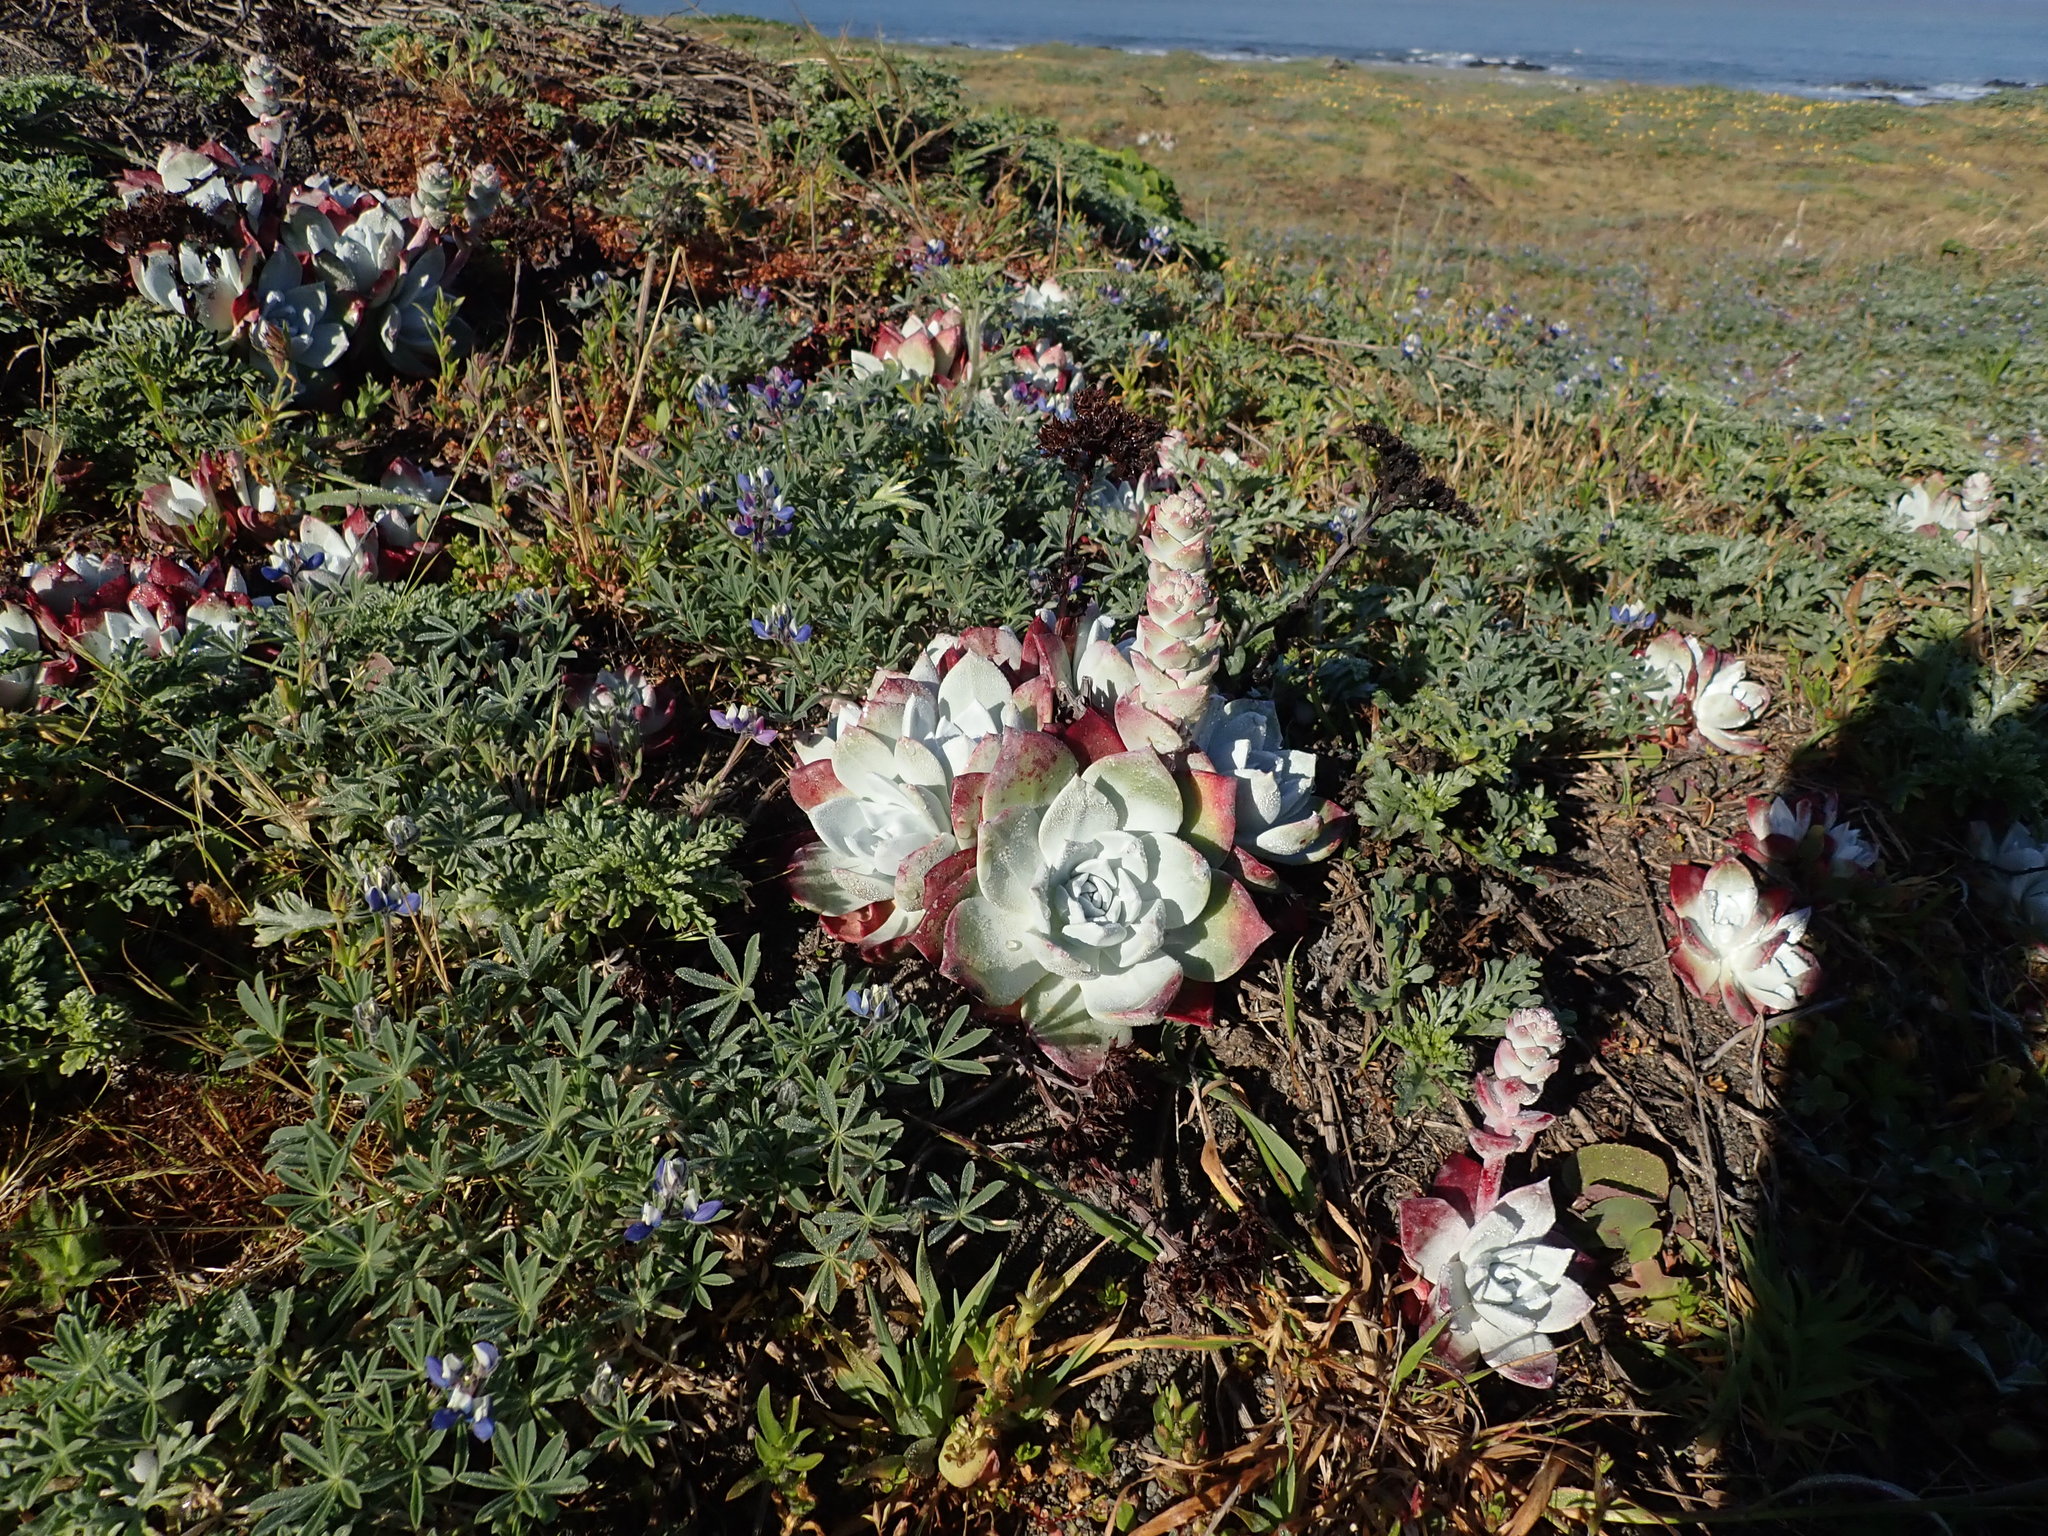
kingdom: Plantae
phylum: Tracheophyta
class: Magnoliopsida
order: Saxifragales
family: Crassulaceae
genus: Dudleya
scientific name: Dudleya farinosa
